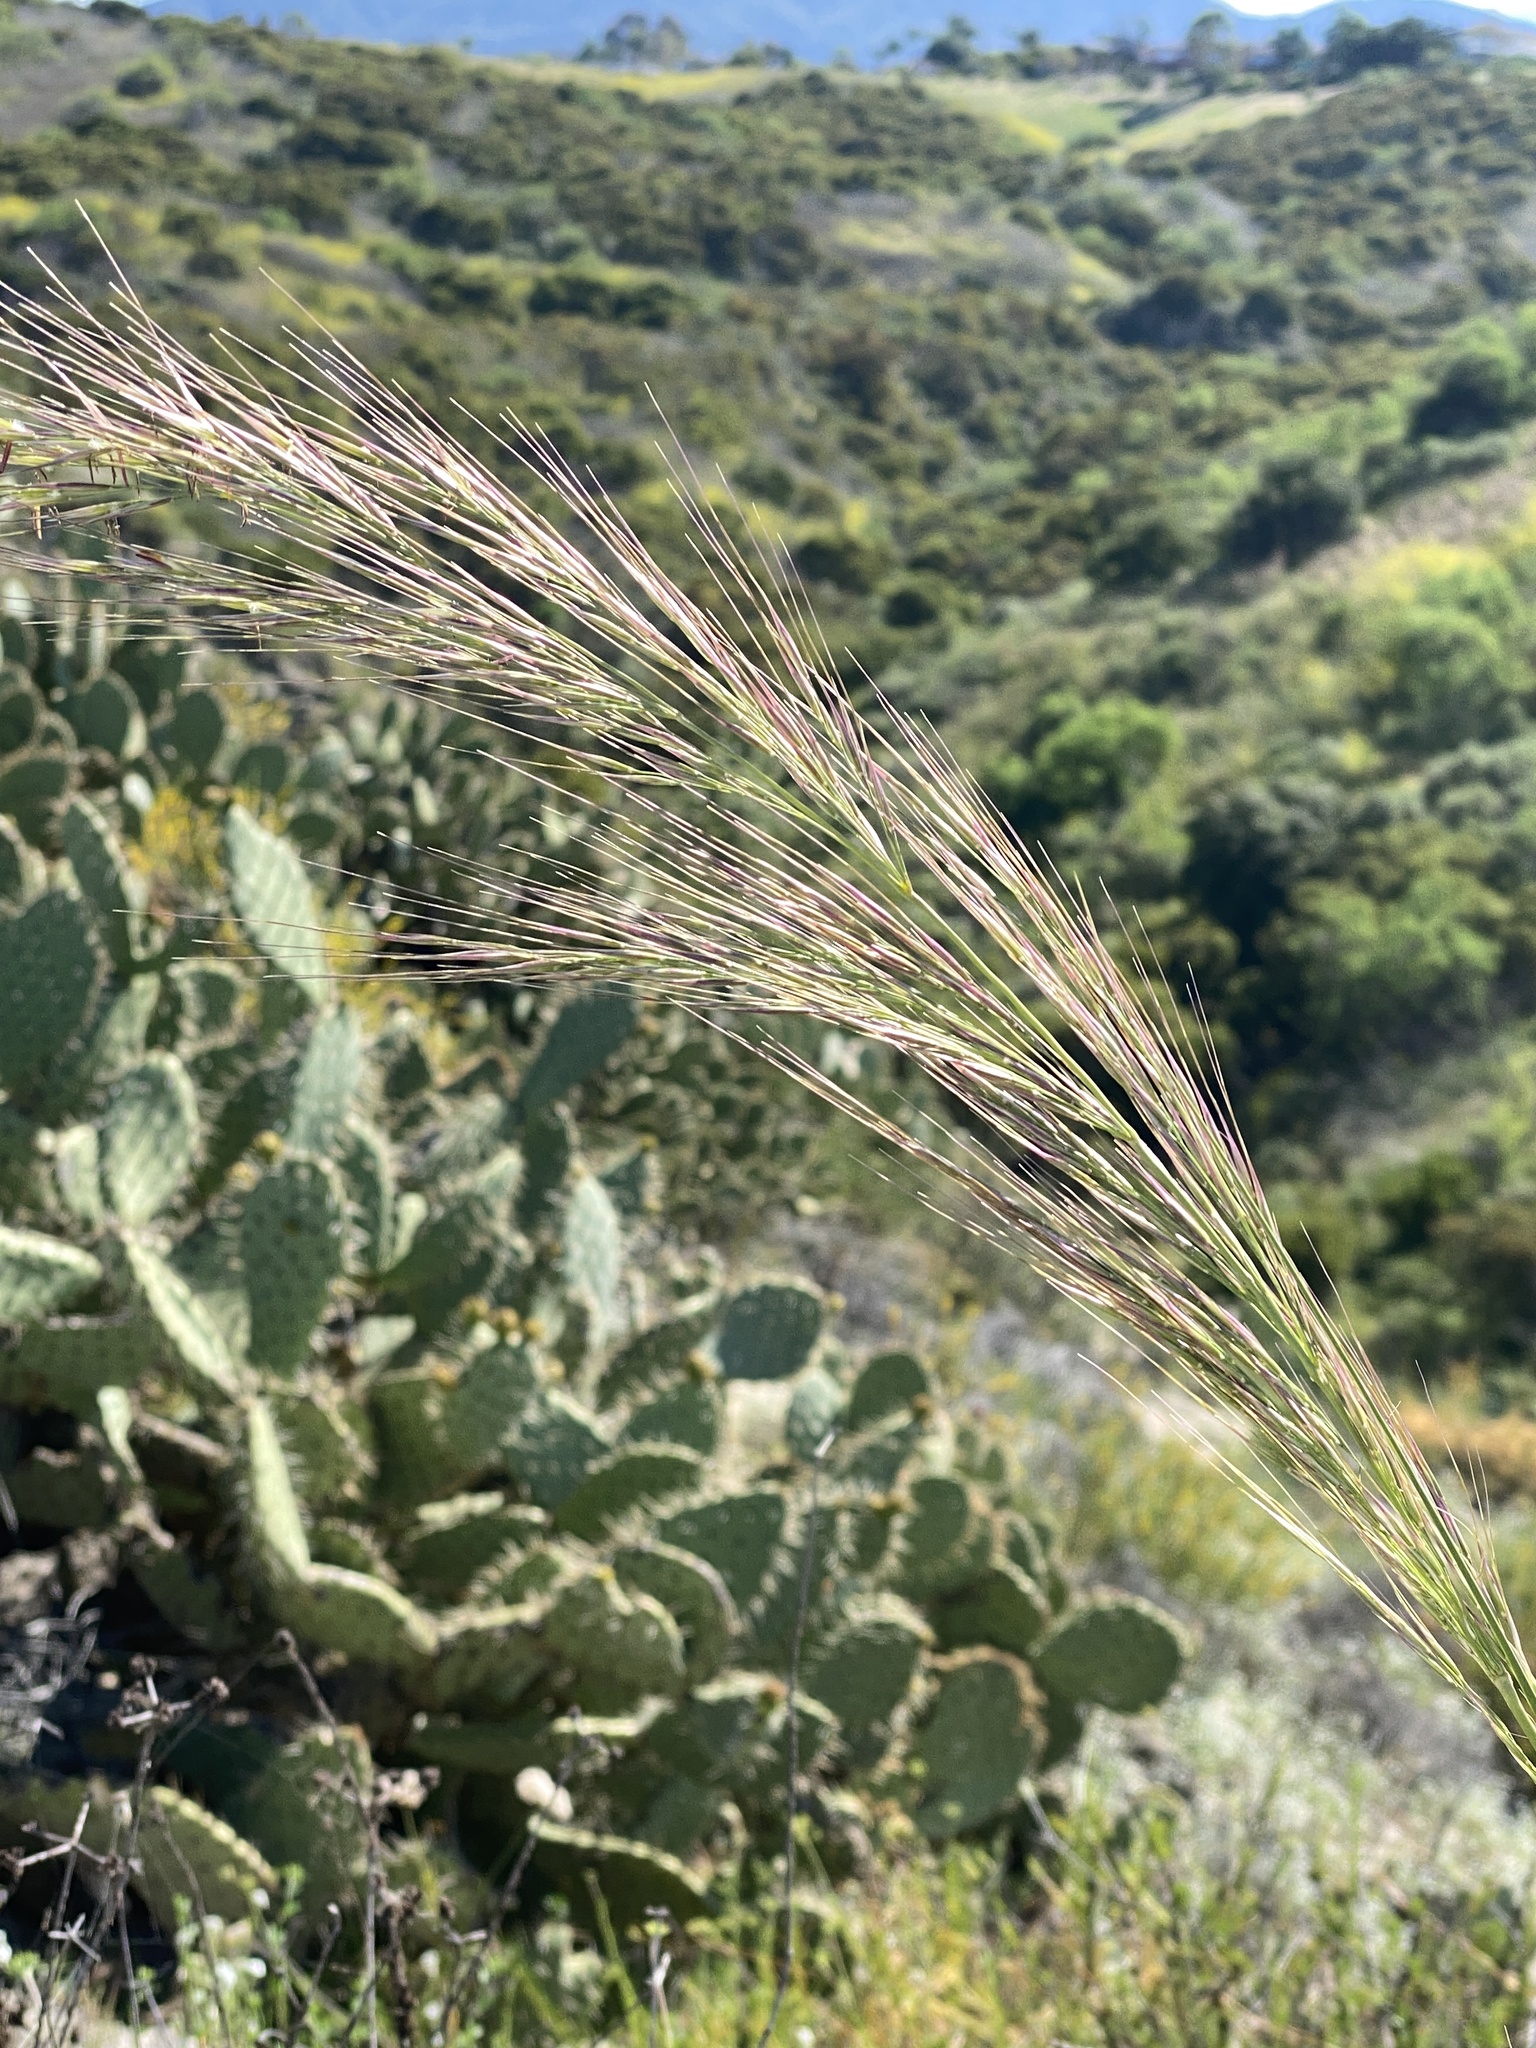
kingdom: Plantae
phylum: Tracheophyta
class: Liliopsida
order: Poales
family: Poaceae
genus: Leymus
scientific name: Leymus condensatus
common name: Giant wild rye
